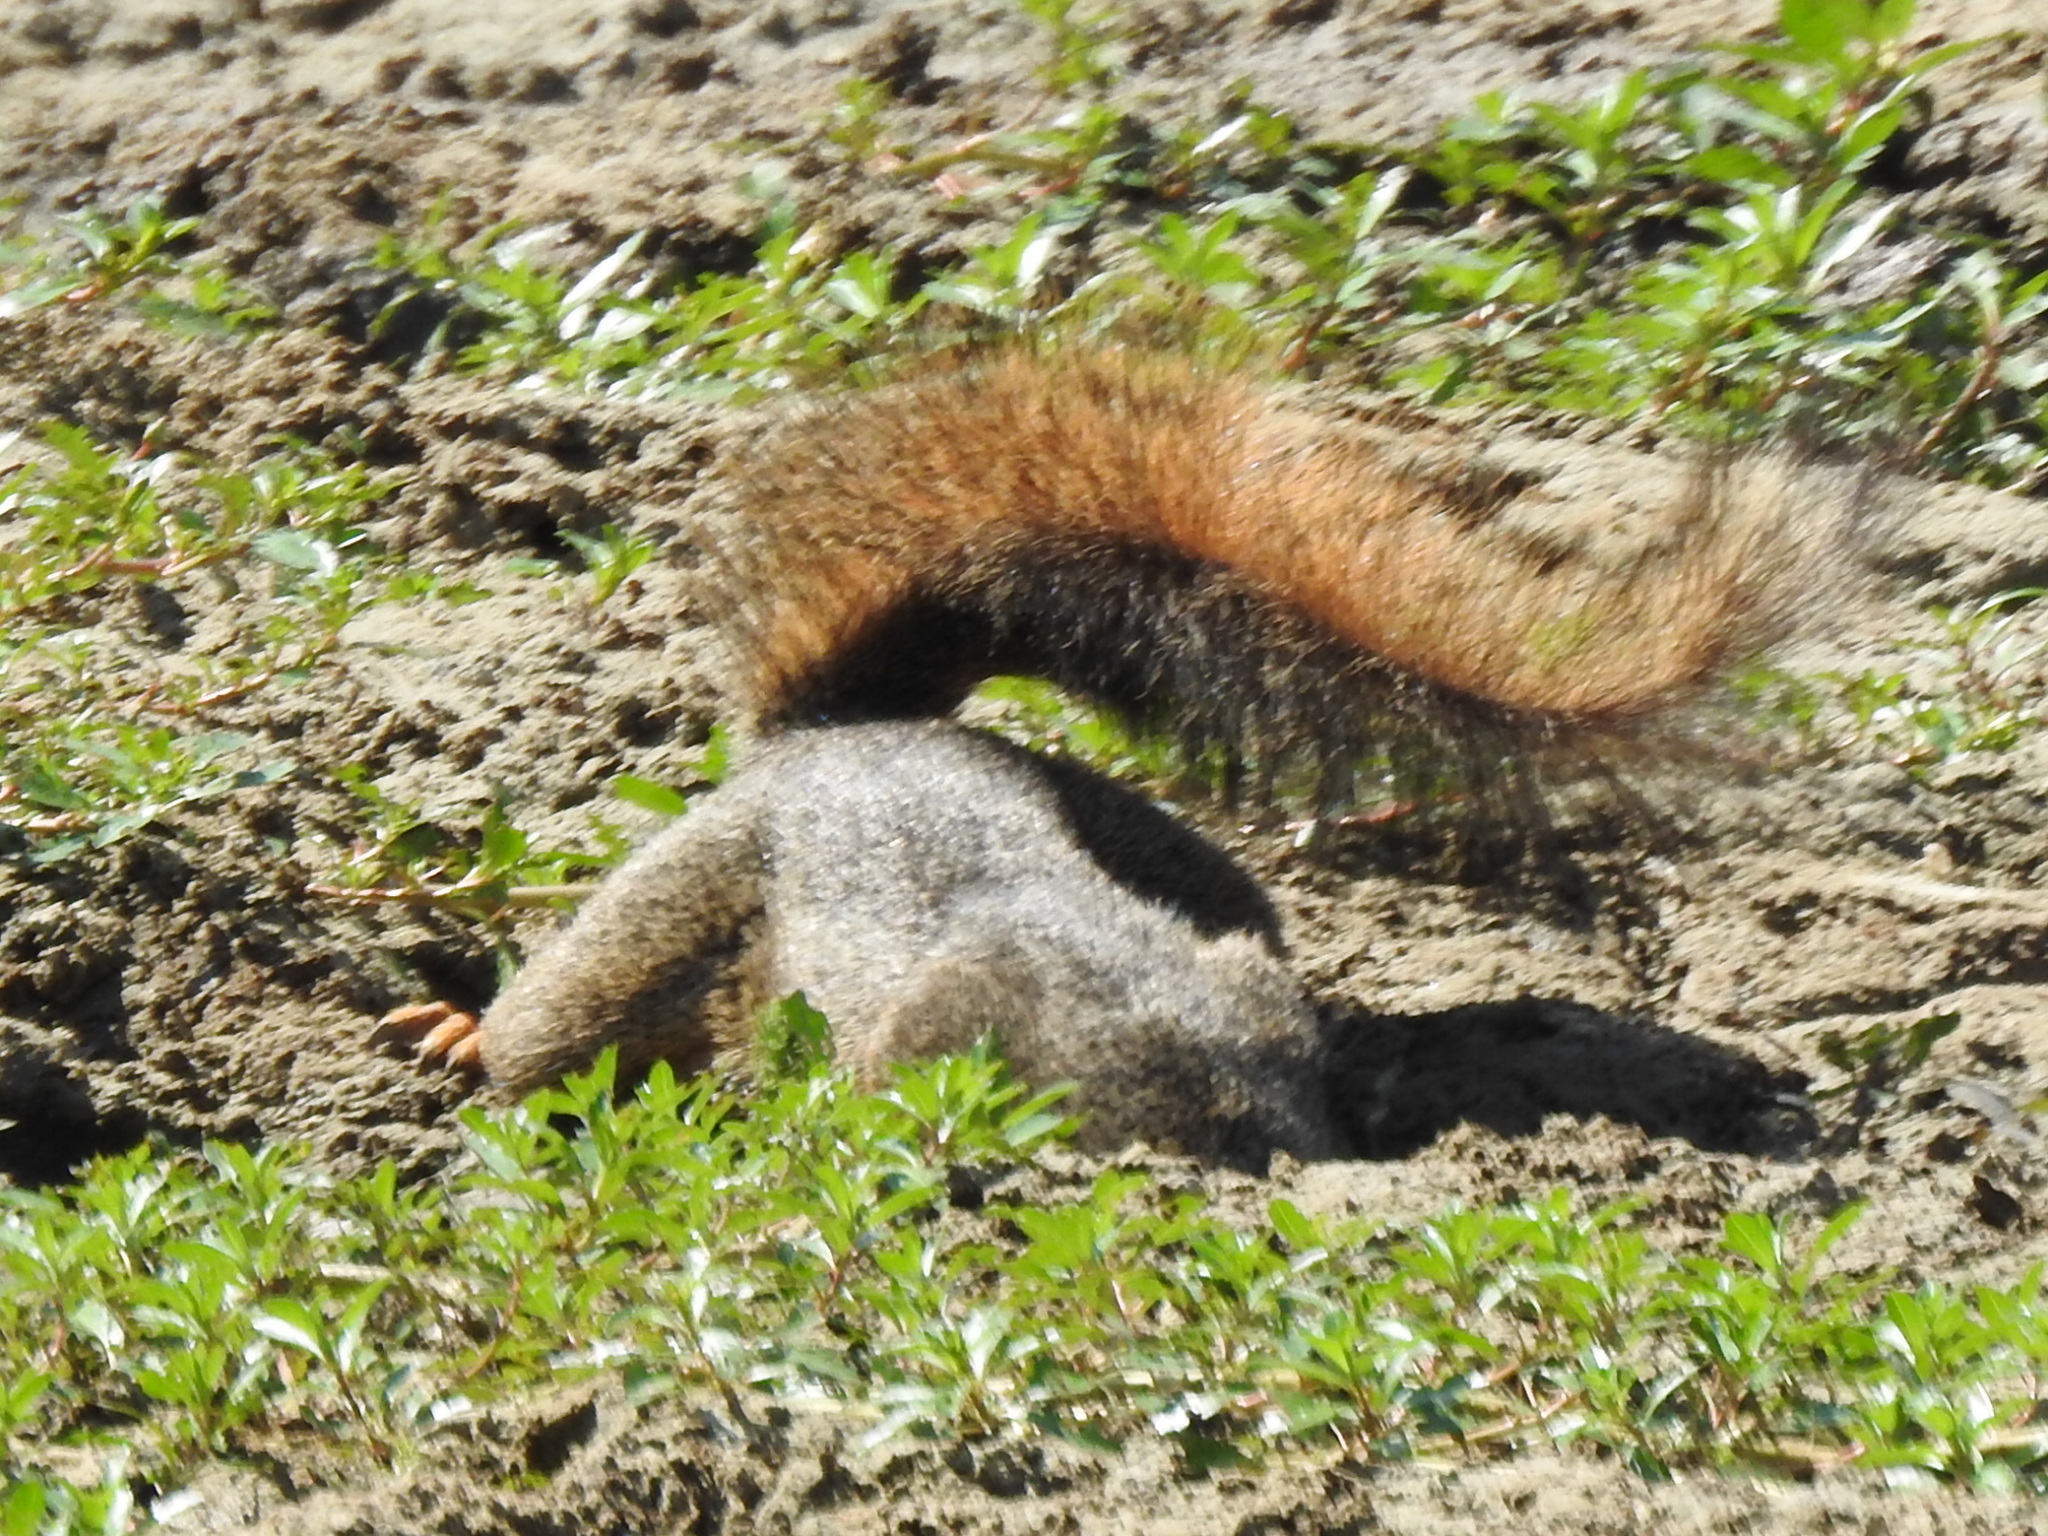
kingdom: Animalia
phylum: Chordata
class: Mammalia
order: Rodentia
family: Sciuridae
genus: Sciurus
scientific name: Sciurus niger
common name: Fox squirrel
